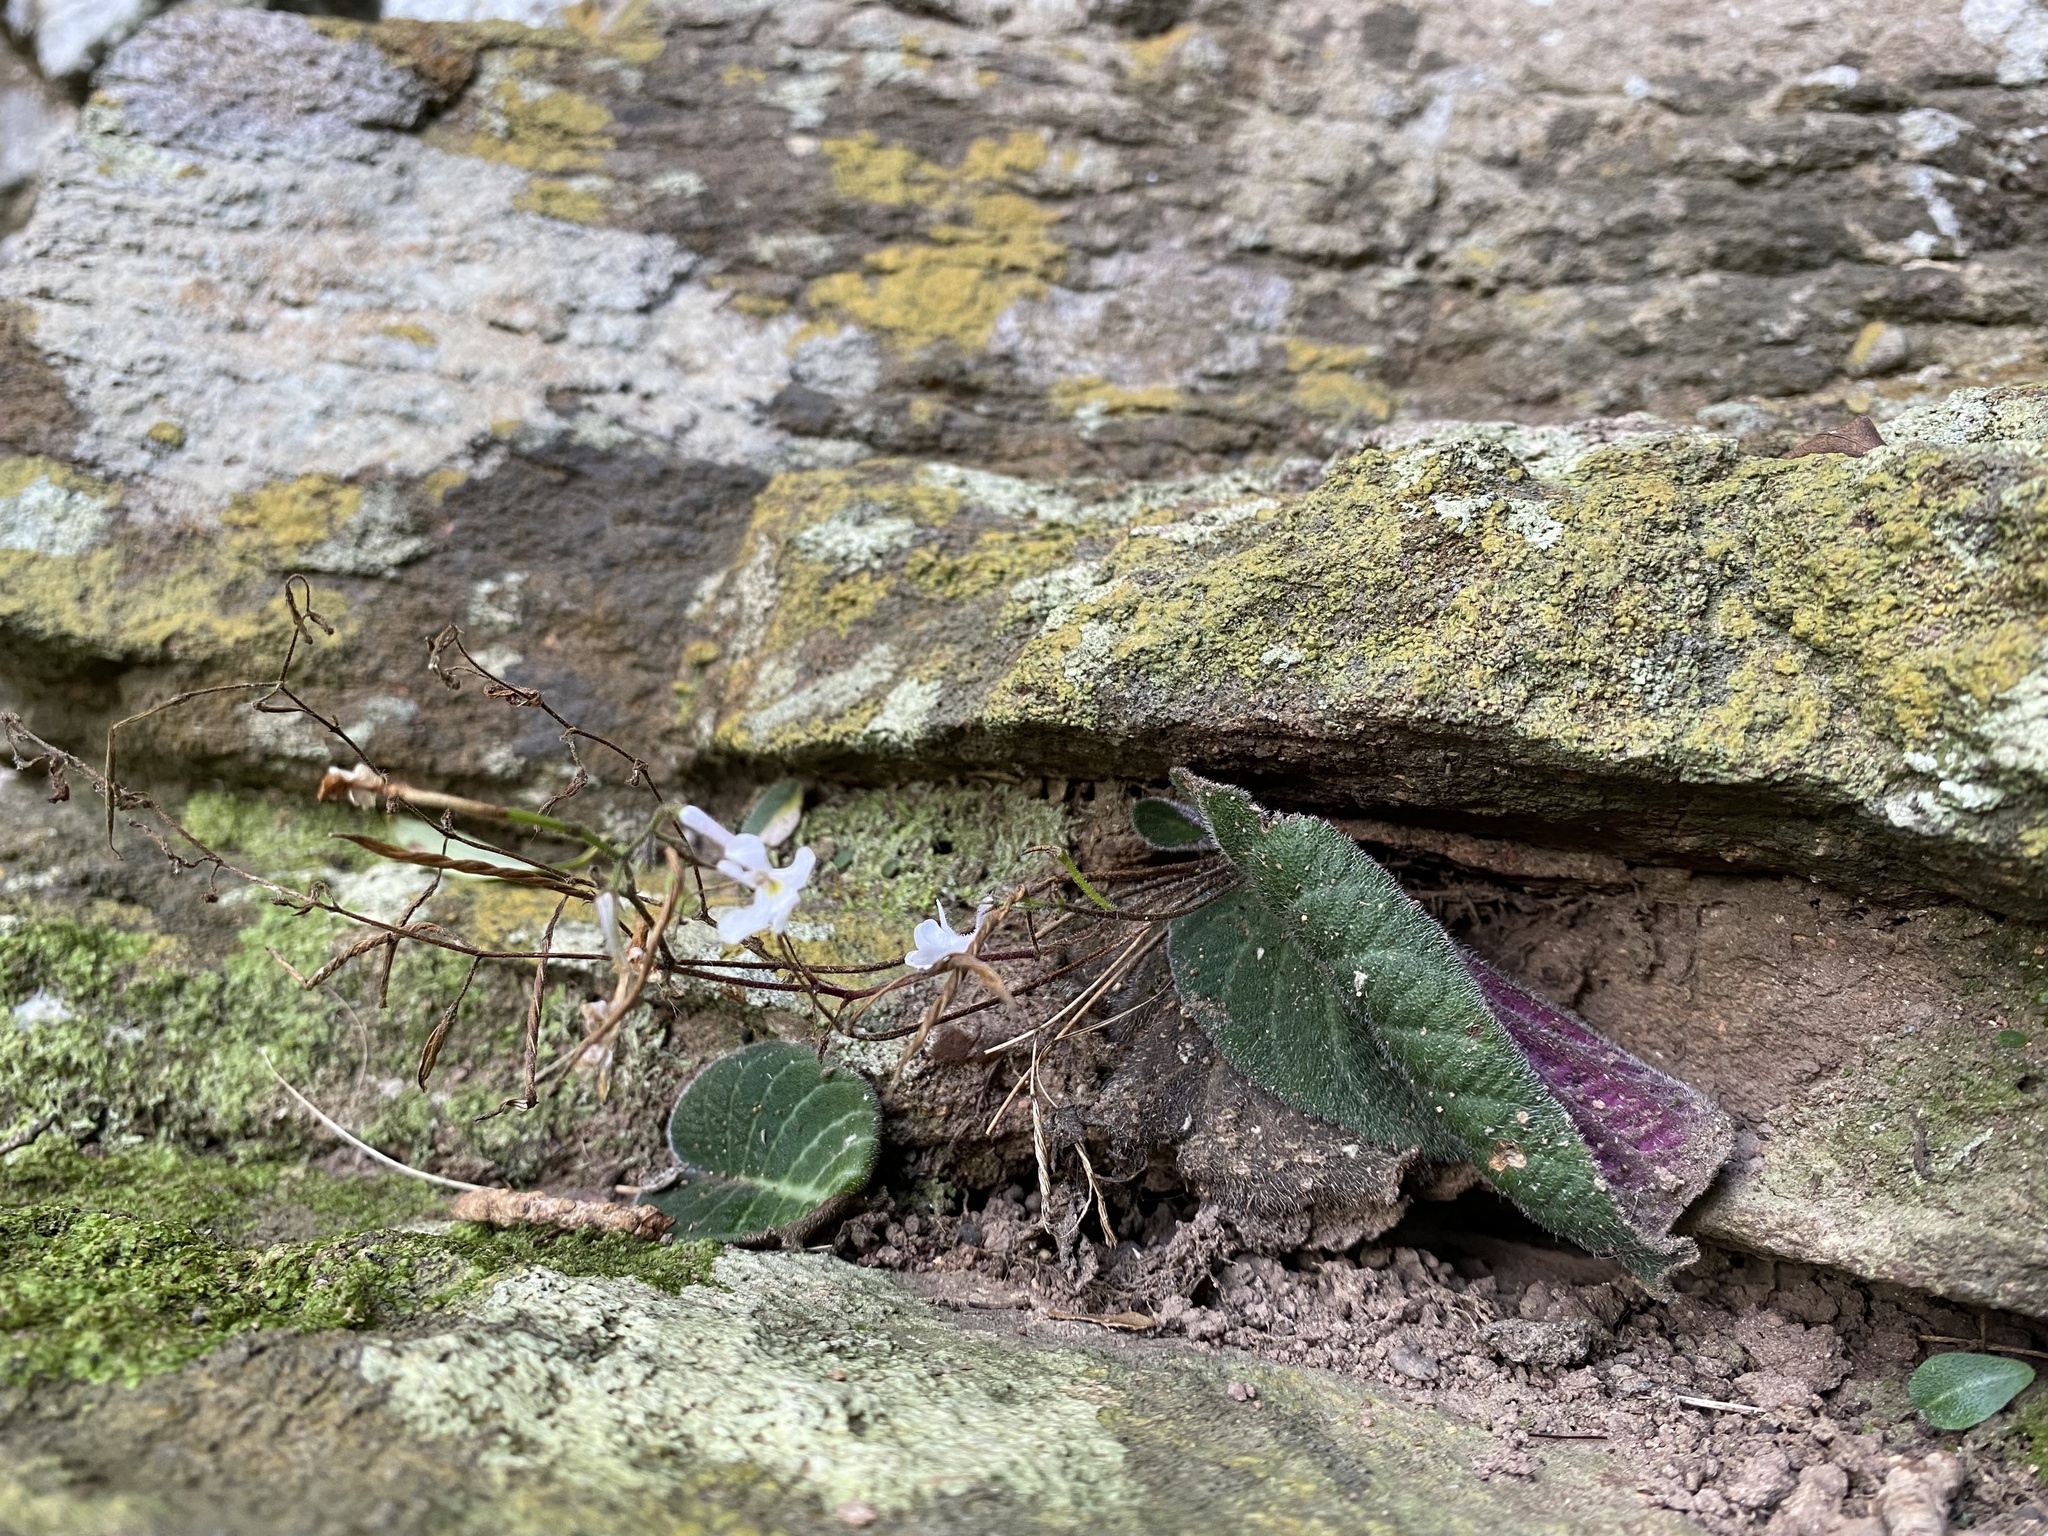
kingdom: Plantae
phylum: Tracheophyta
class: Magnoliopsida
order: Lamiales
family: Gesneriaceae
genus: Streptocarpus
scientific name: Streptocarpus prolixus
